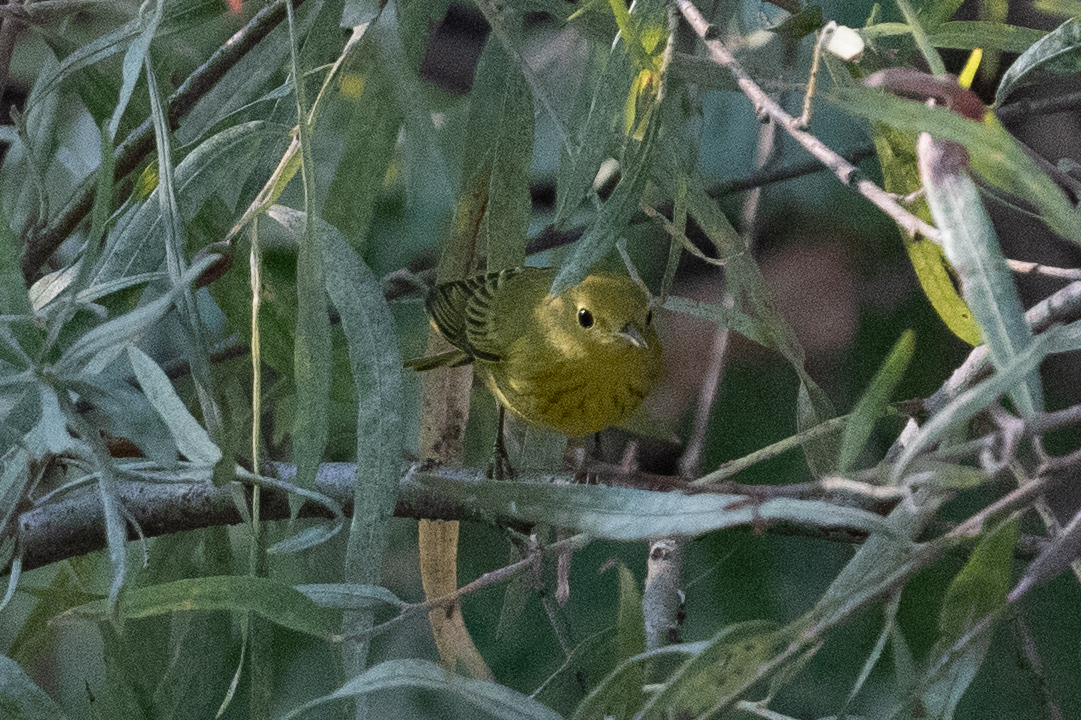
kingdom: Animalia
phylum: Chordata
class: Aves
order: Passeriformes
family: Parulidae
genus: Setophaga
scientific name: Setophaga petechia
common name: Yellow warbler
